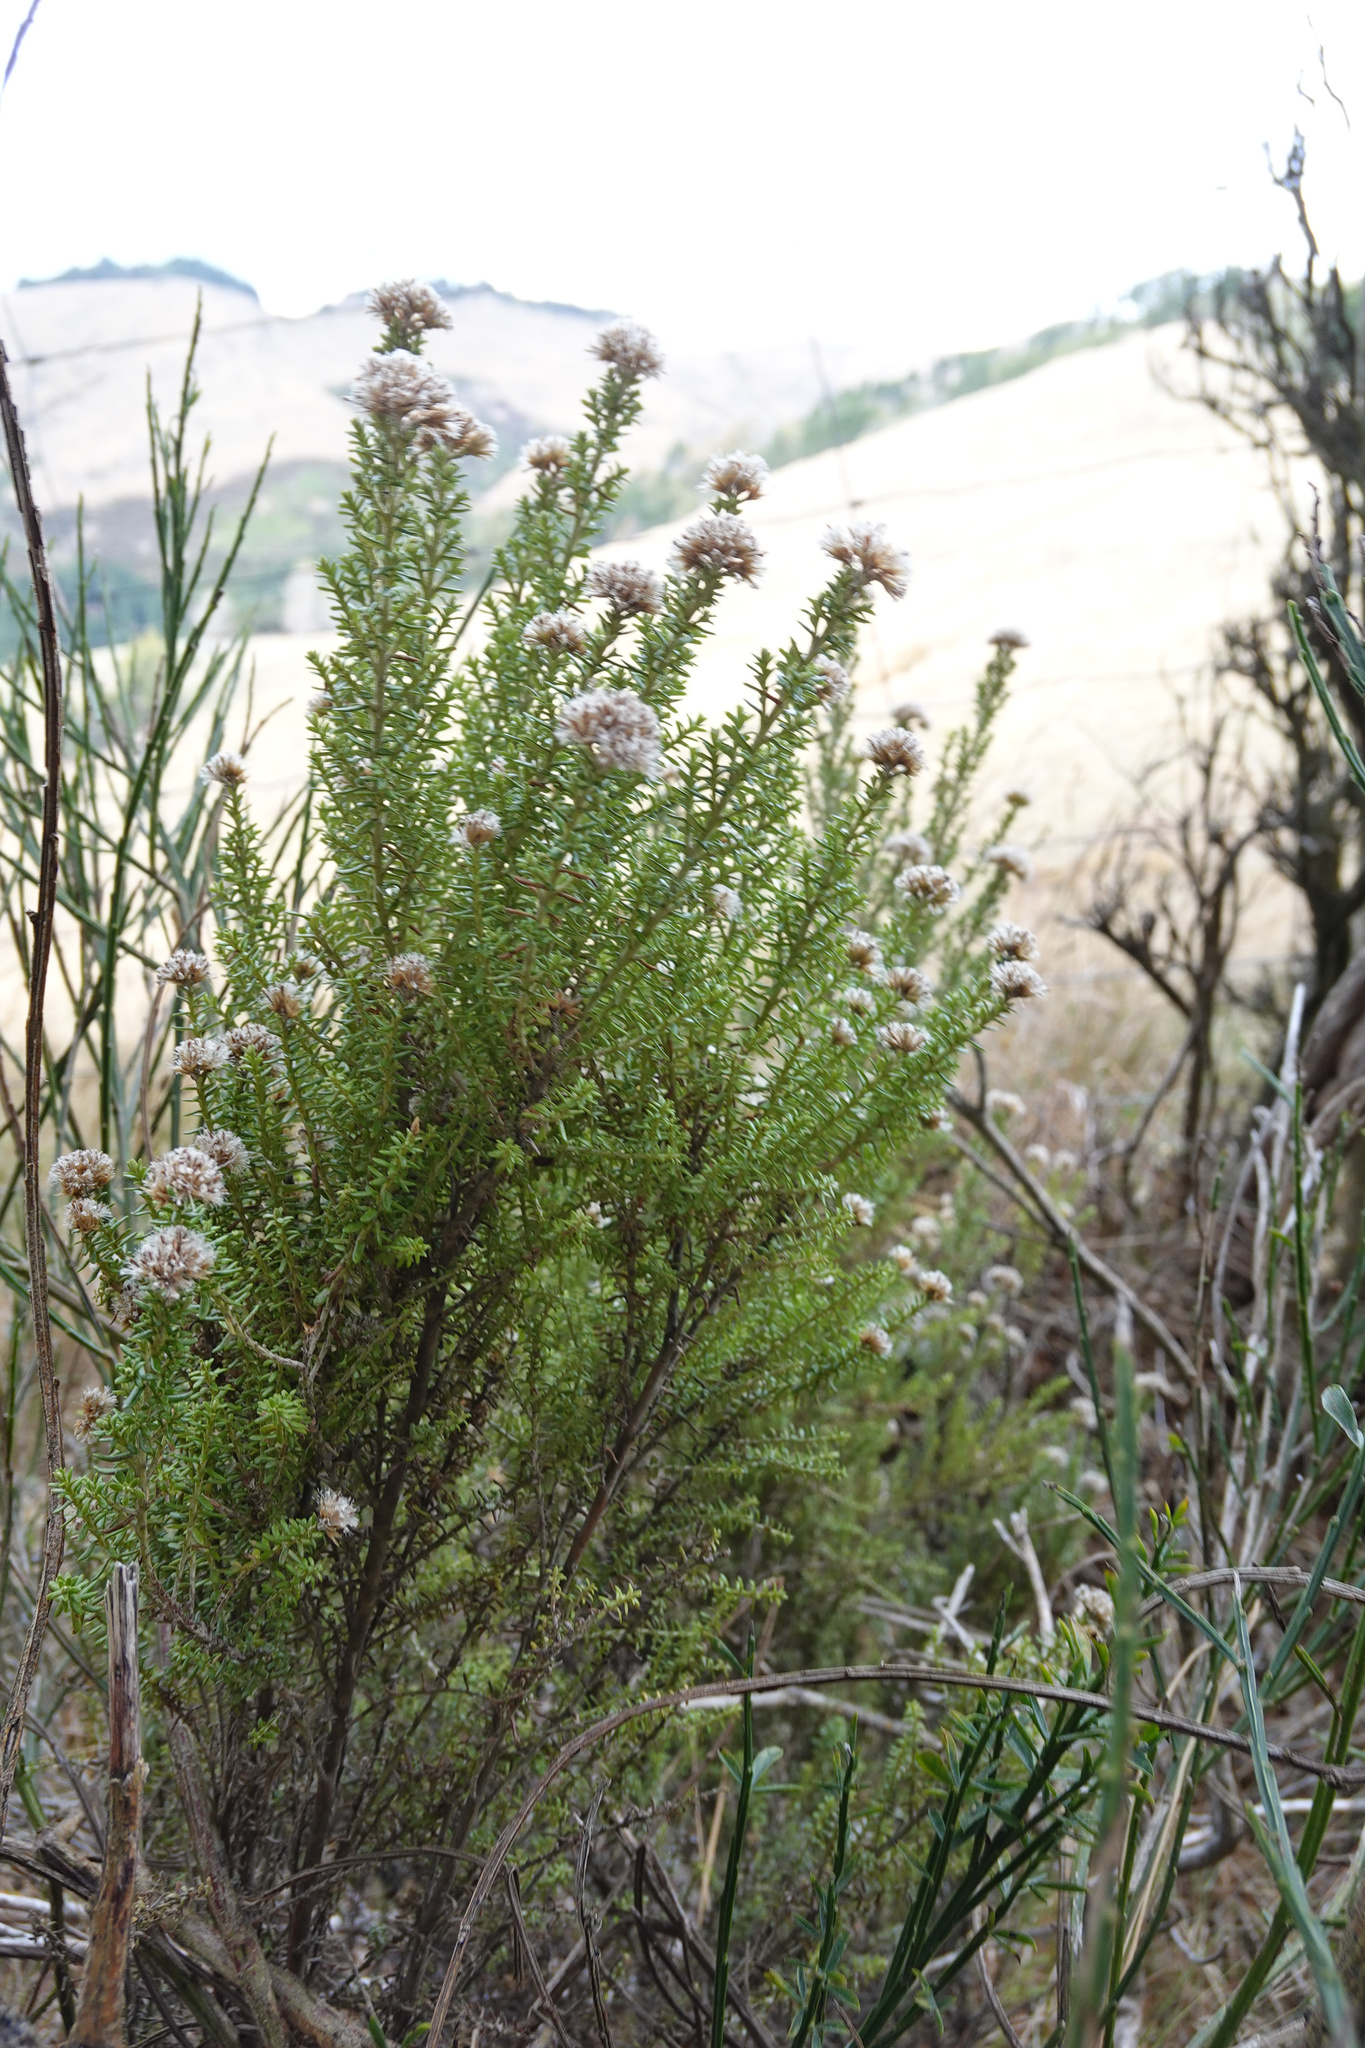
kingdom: Plantae
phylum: Tracheophyta
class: Magnoliopsida
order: Asterales
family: Asteraceae
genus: Ozothamnus
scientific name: Ozothamnus leptophyllus
